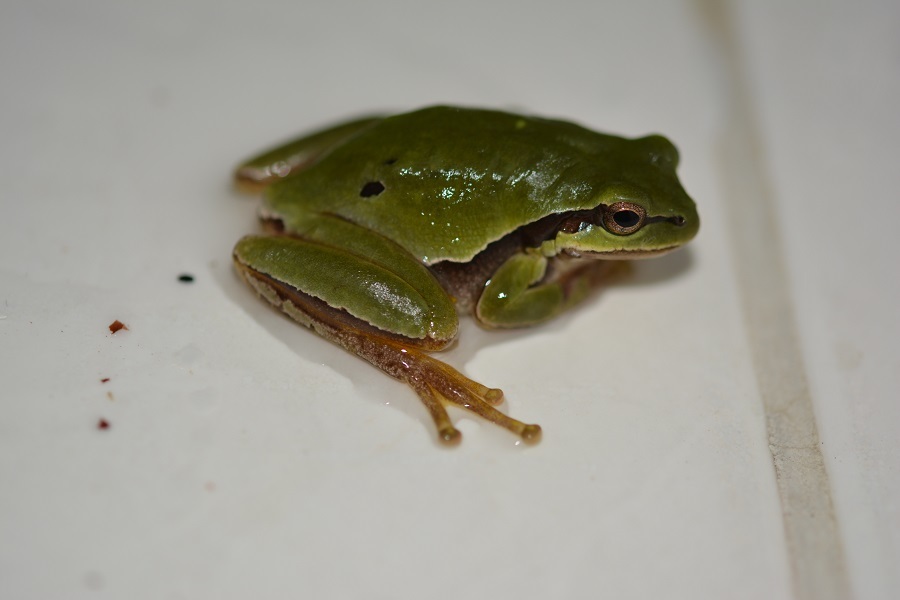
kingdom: Animalia
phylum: Chordata
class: Amphibia
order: Anura
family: Hylidae
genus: Dryophytes
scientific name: Dryophytes walkeri
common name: Walker's treefrog
